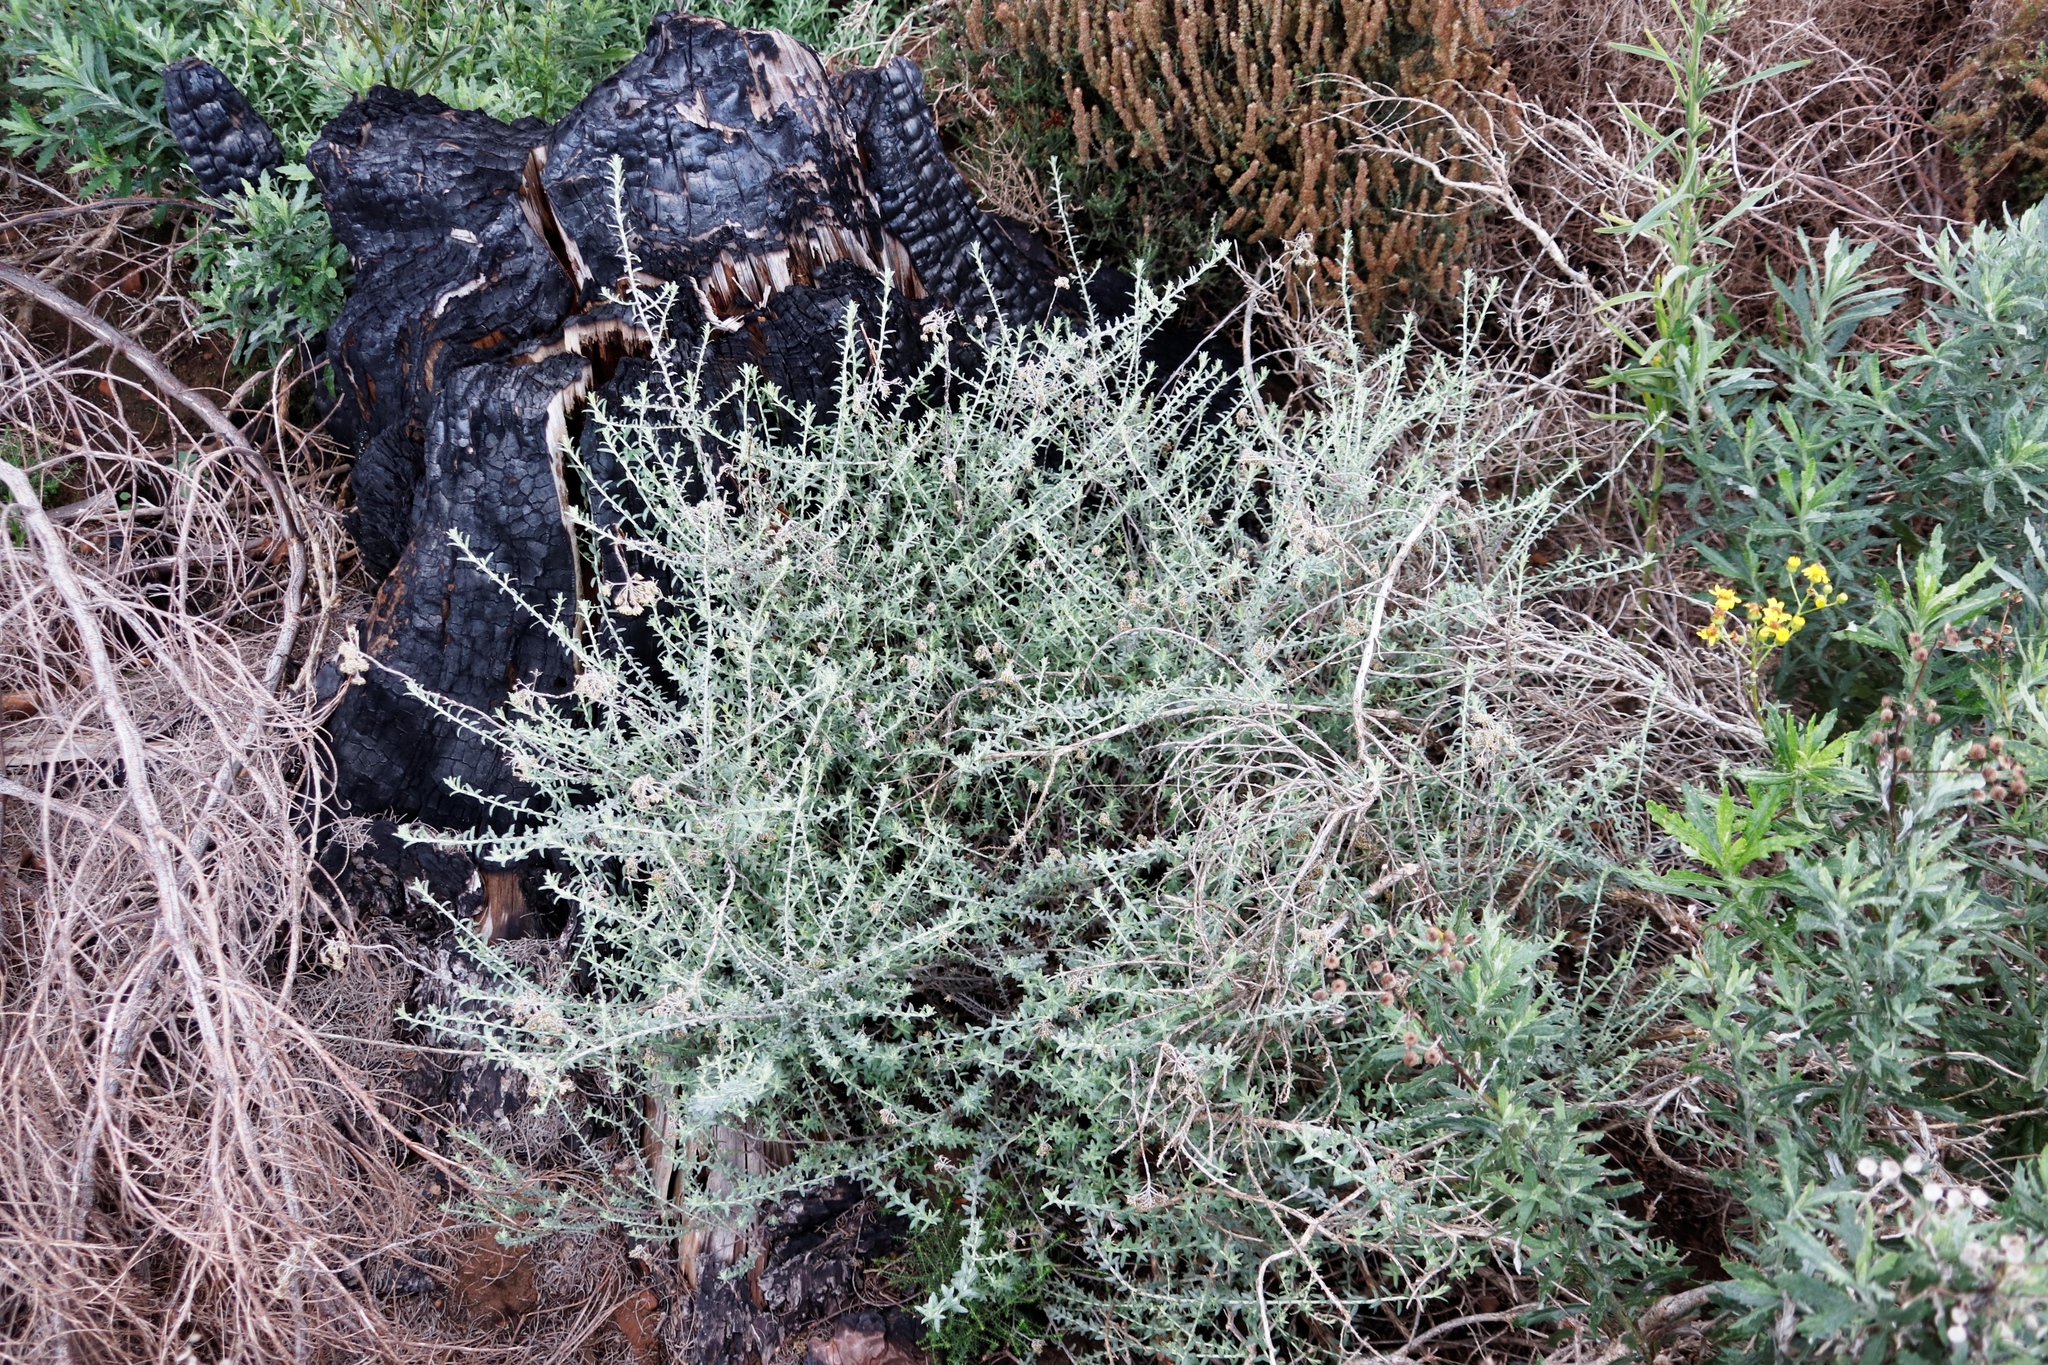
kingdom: Plantae
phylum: Tracheophyta
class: Magnoliopsida
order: Asterales
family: Asteraceae
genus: Helichrysum
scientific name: Helichrysum cymosum
